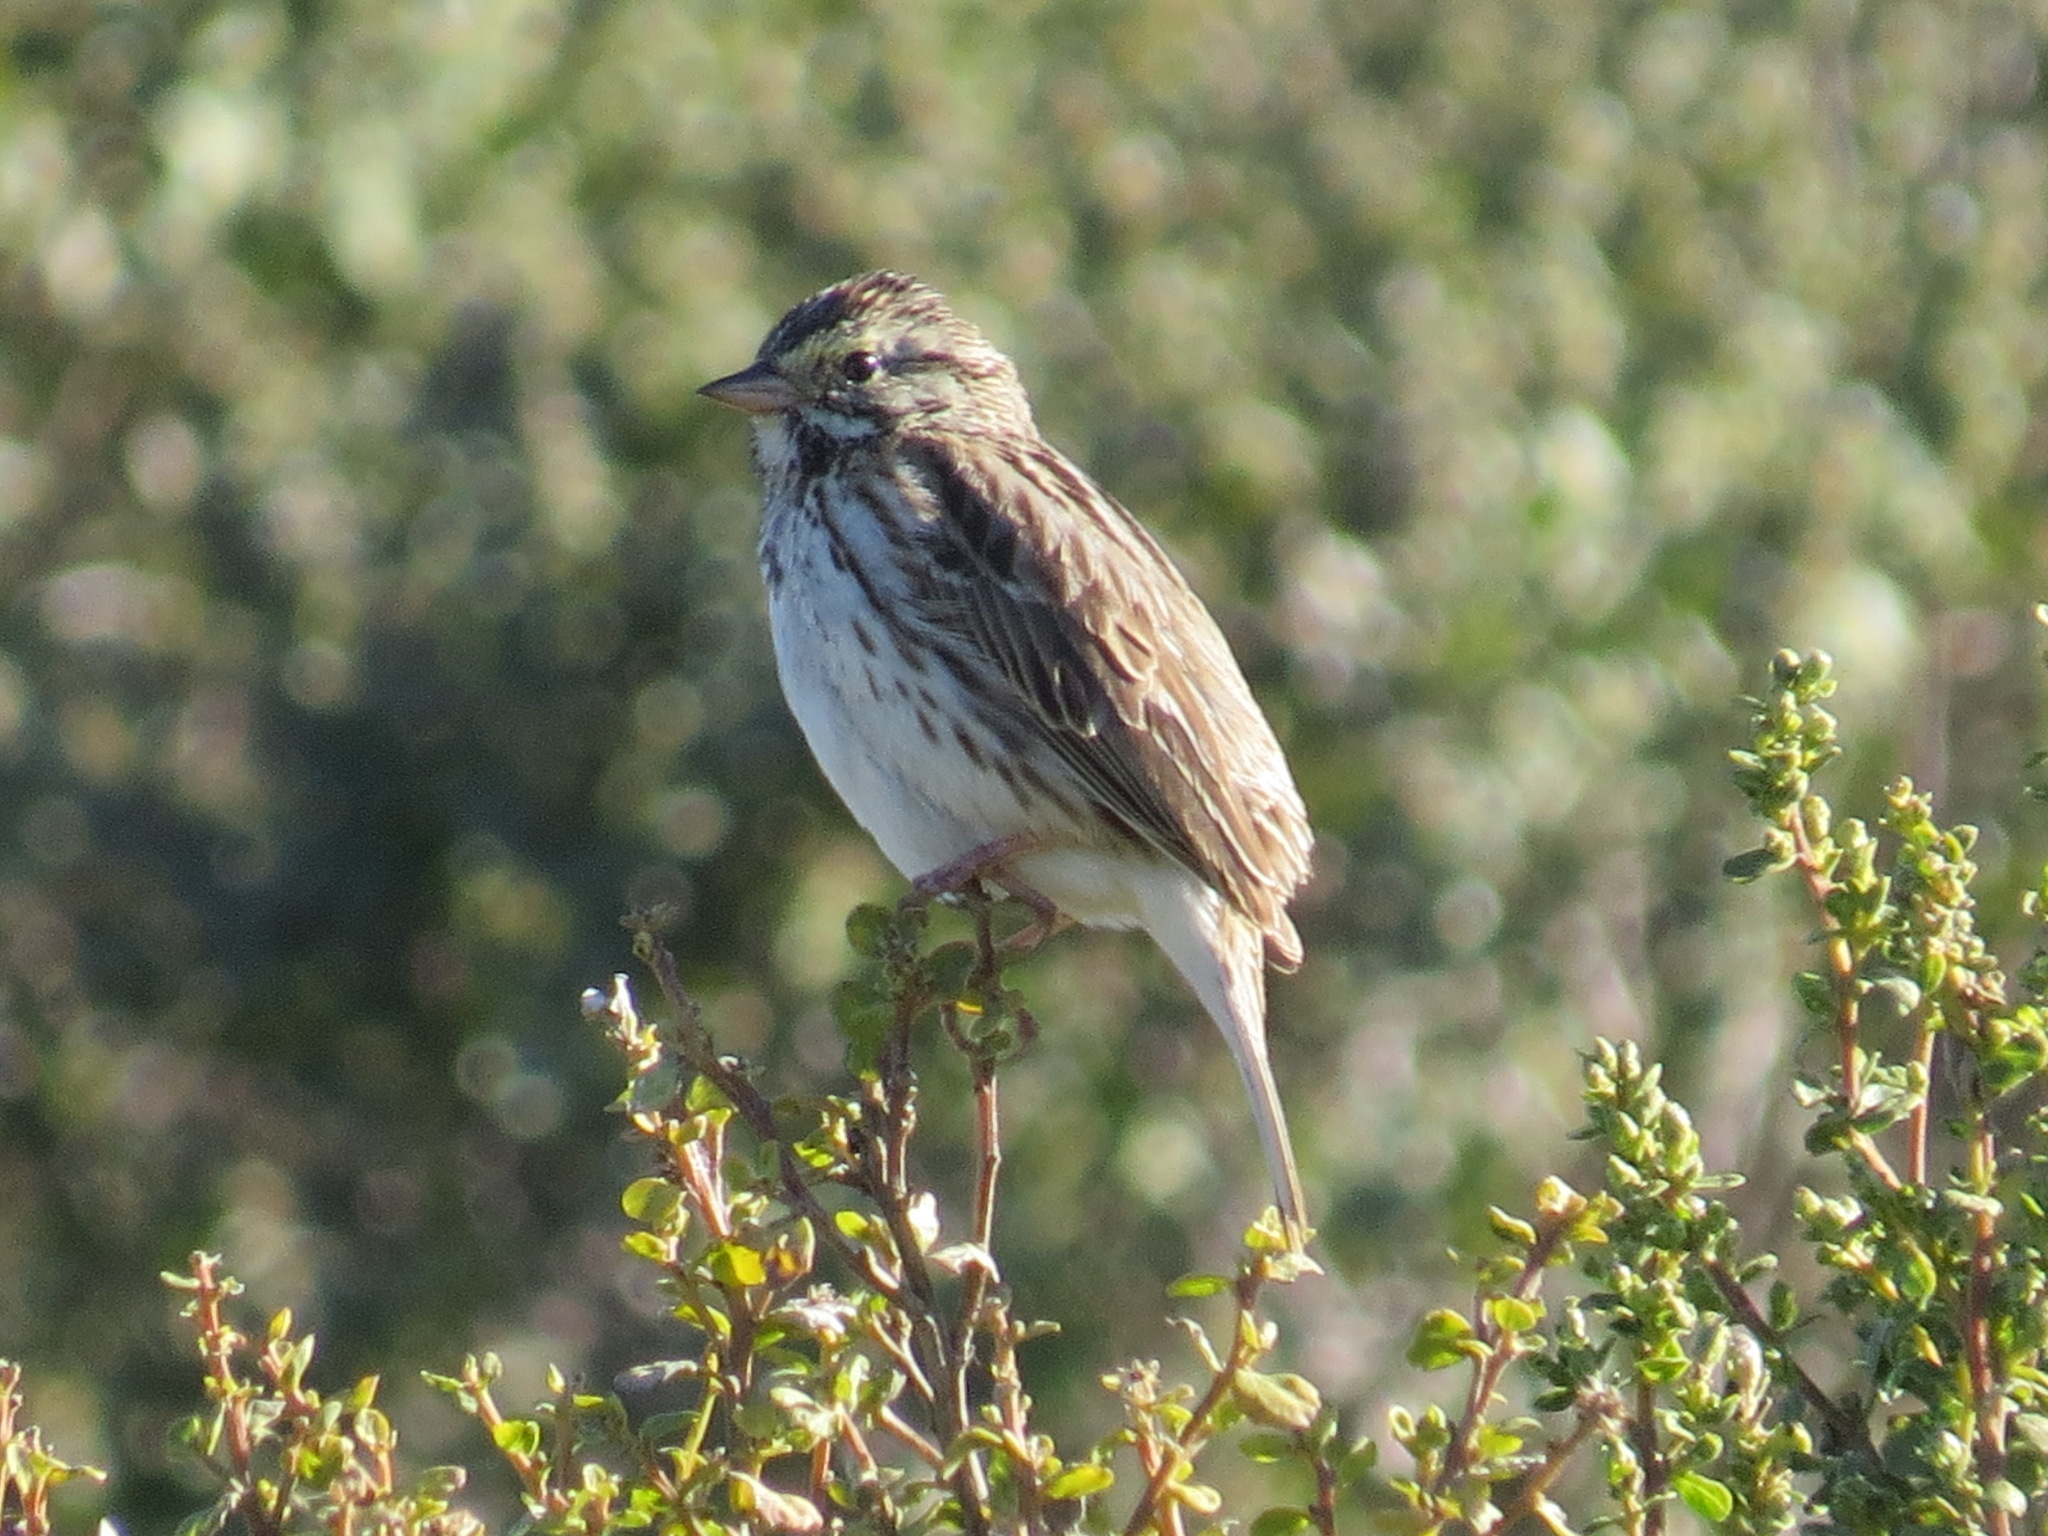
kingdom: Animalia
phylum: Chordata
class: Aves
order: Passeriformes
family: Passerellidae
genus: Passerculus
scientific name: Passerculus sandwichensis
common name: Savannah sparrow
